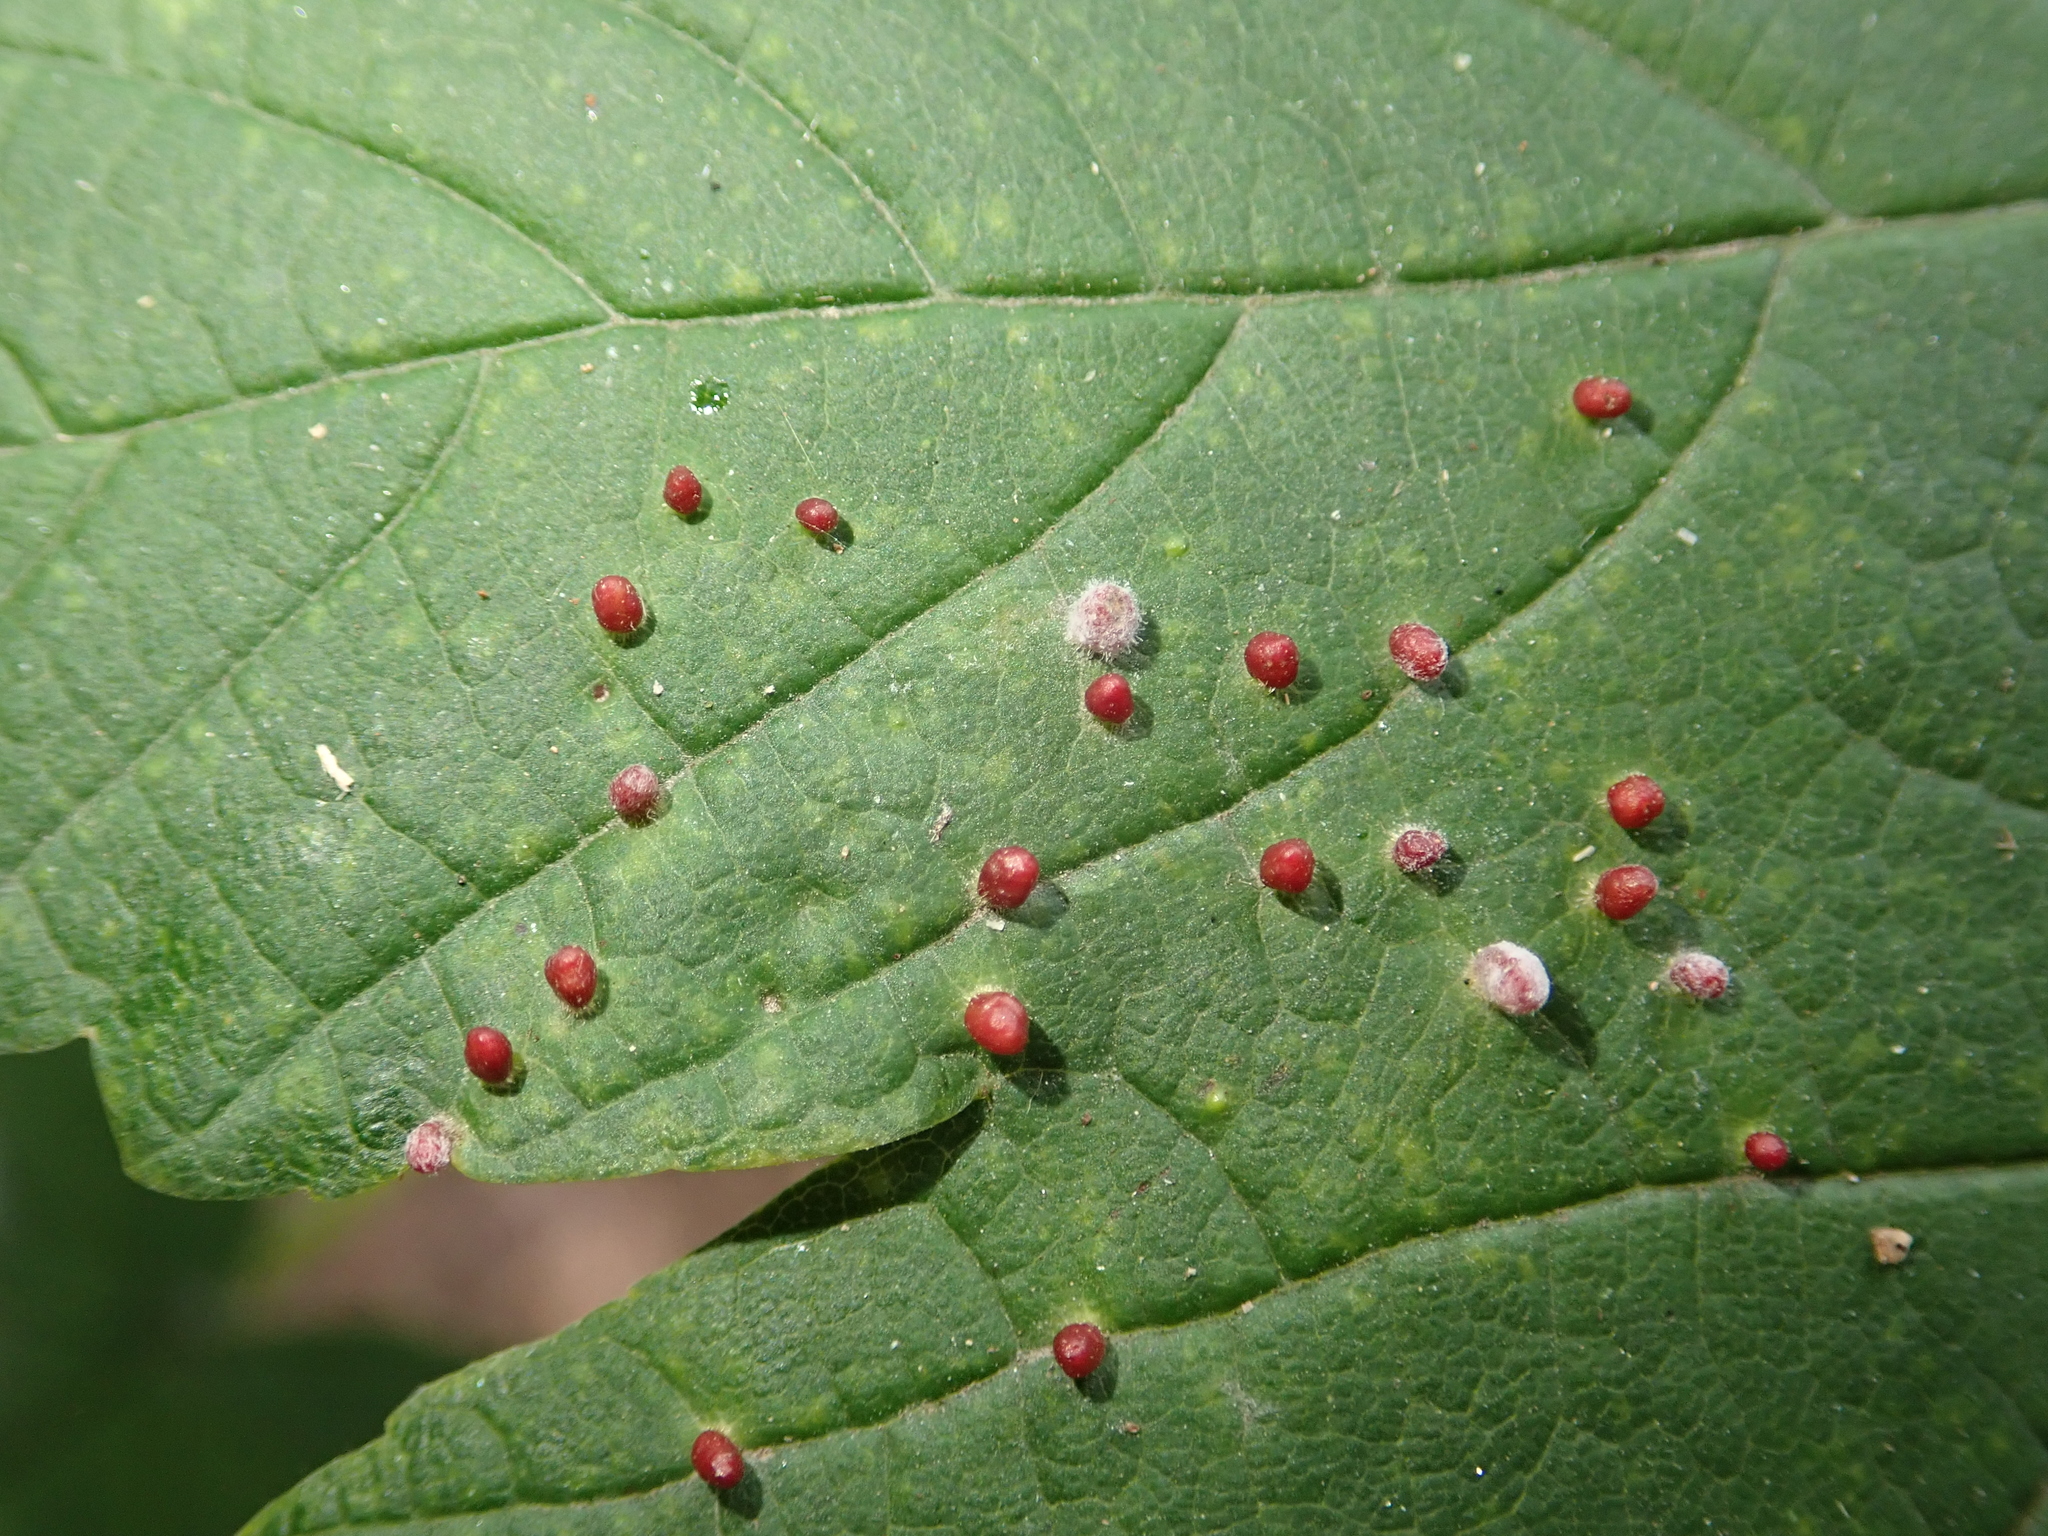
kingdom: Animalia
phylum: Arthropoda
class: Arachnida
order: Trombidiformes
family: Eriophyidae
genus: Aceria
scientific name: Aceria cephaloneus
